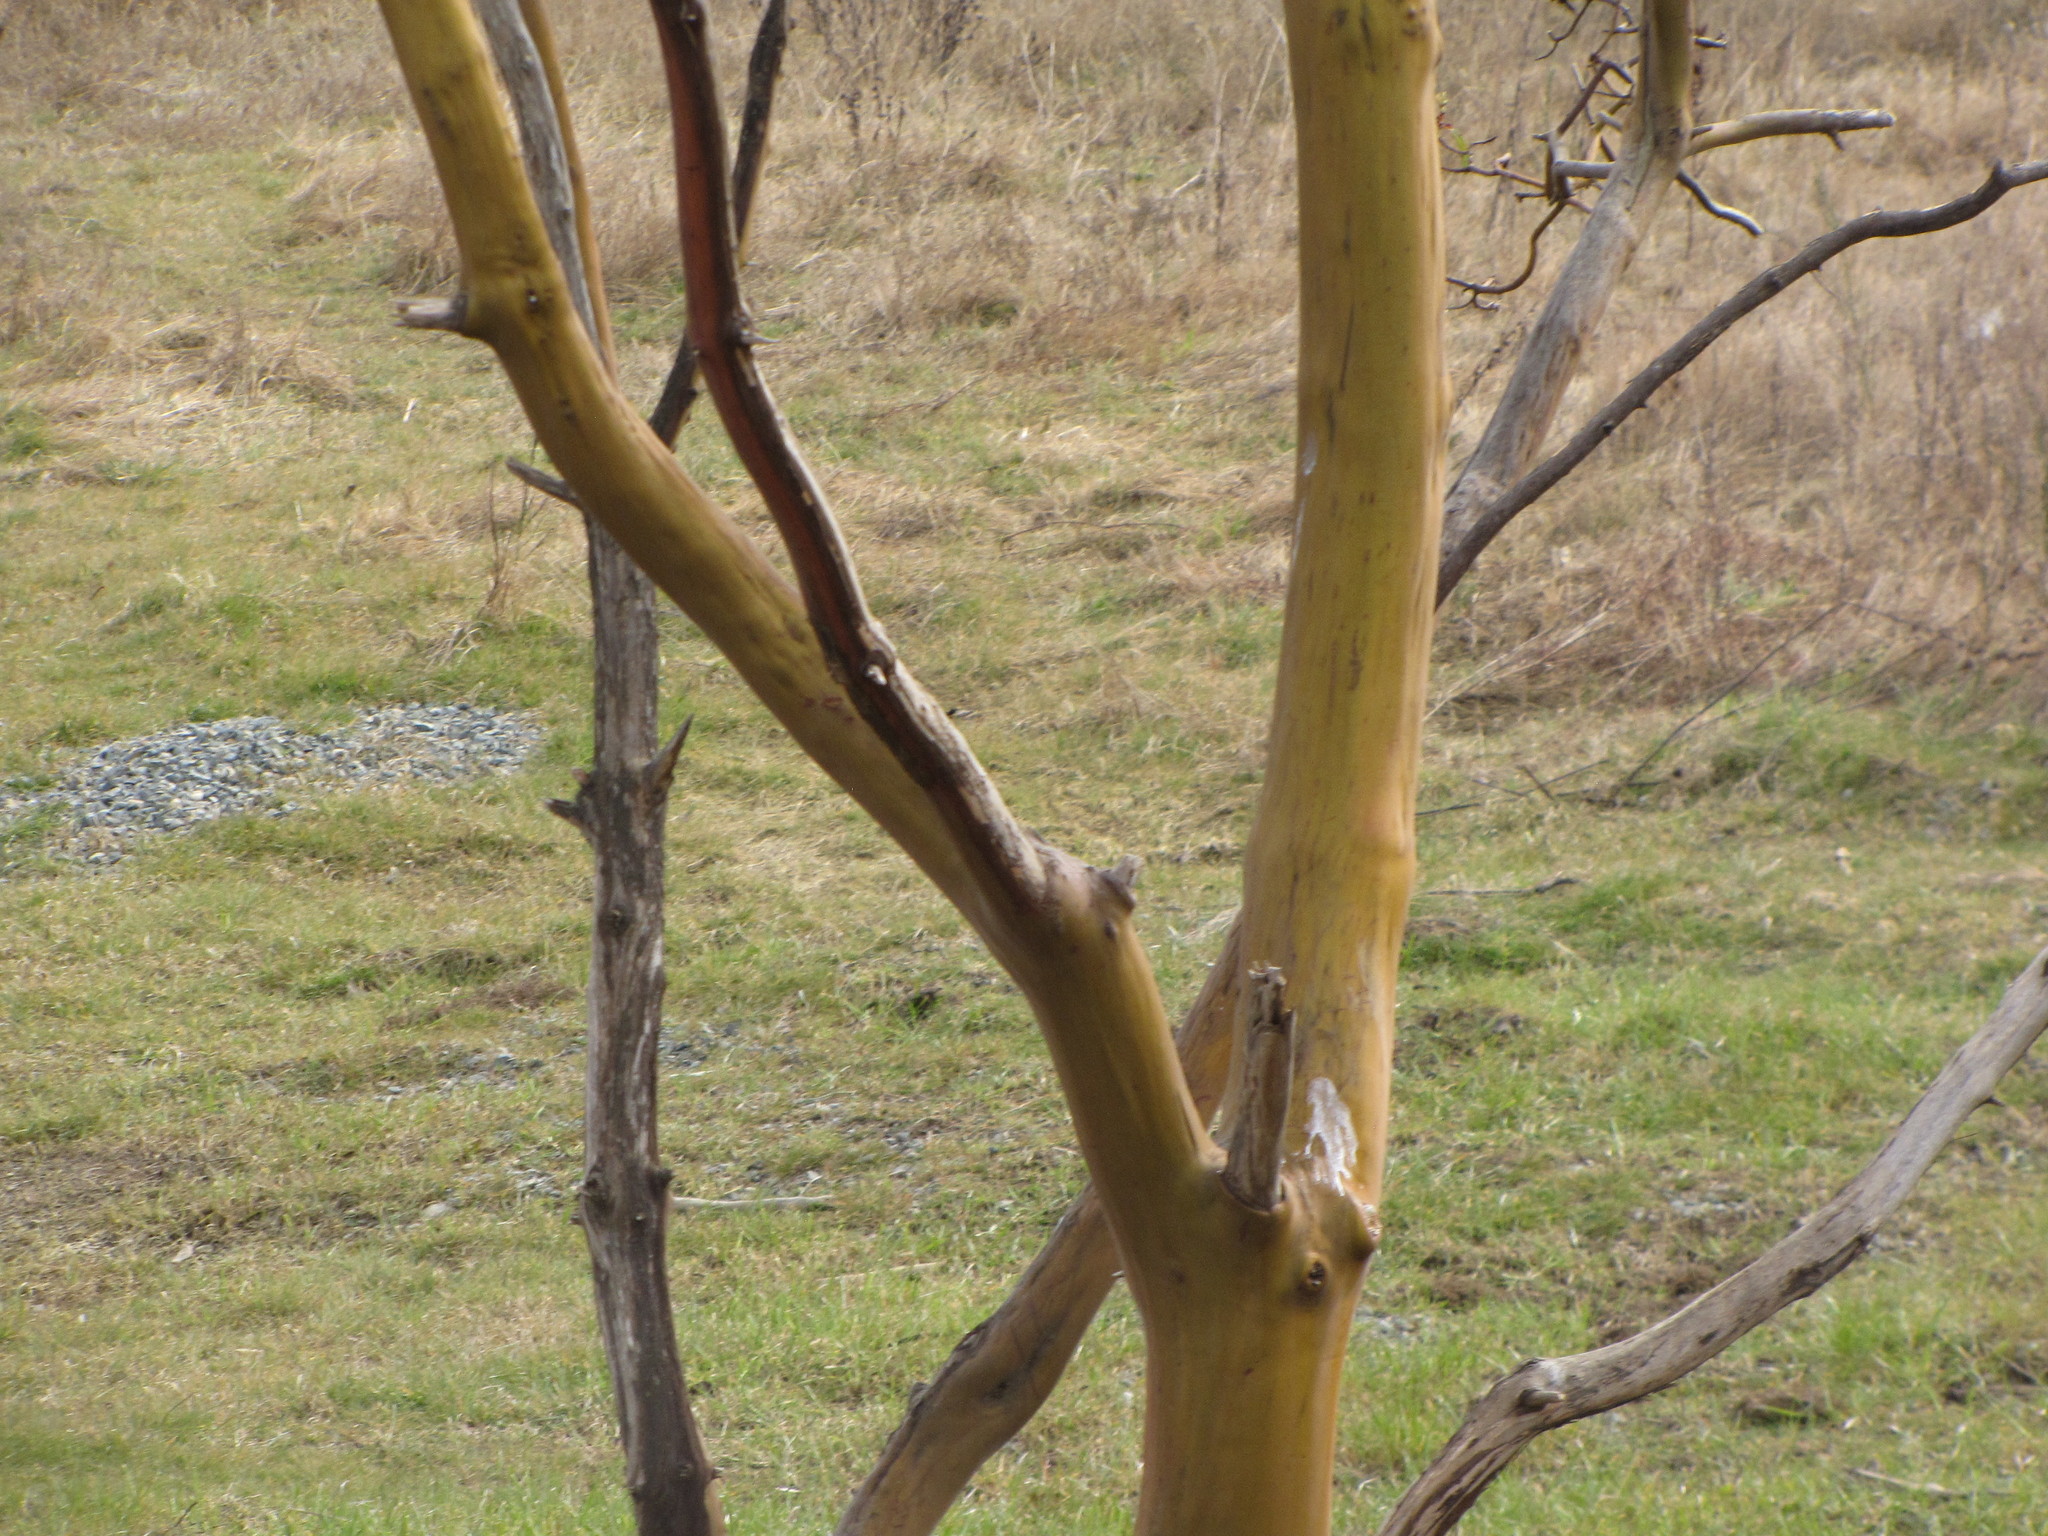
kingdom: Plantae
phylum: Tracheophyta
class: Magnoliopsida
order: Ericales
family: Ericaceae
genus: Arbutus
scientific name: Arbutus menziesii
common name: Pacific madrone
